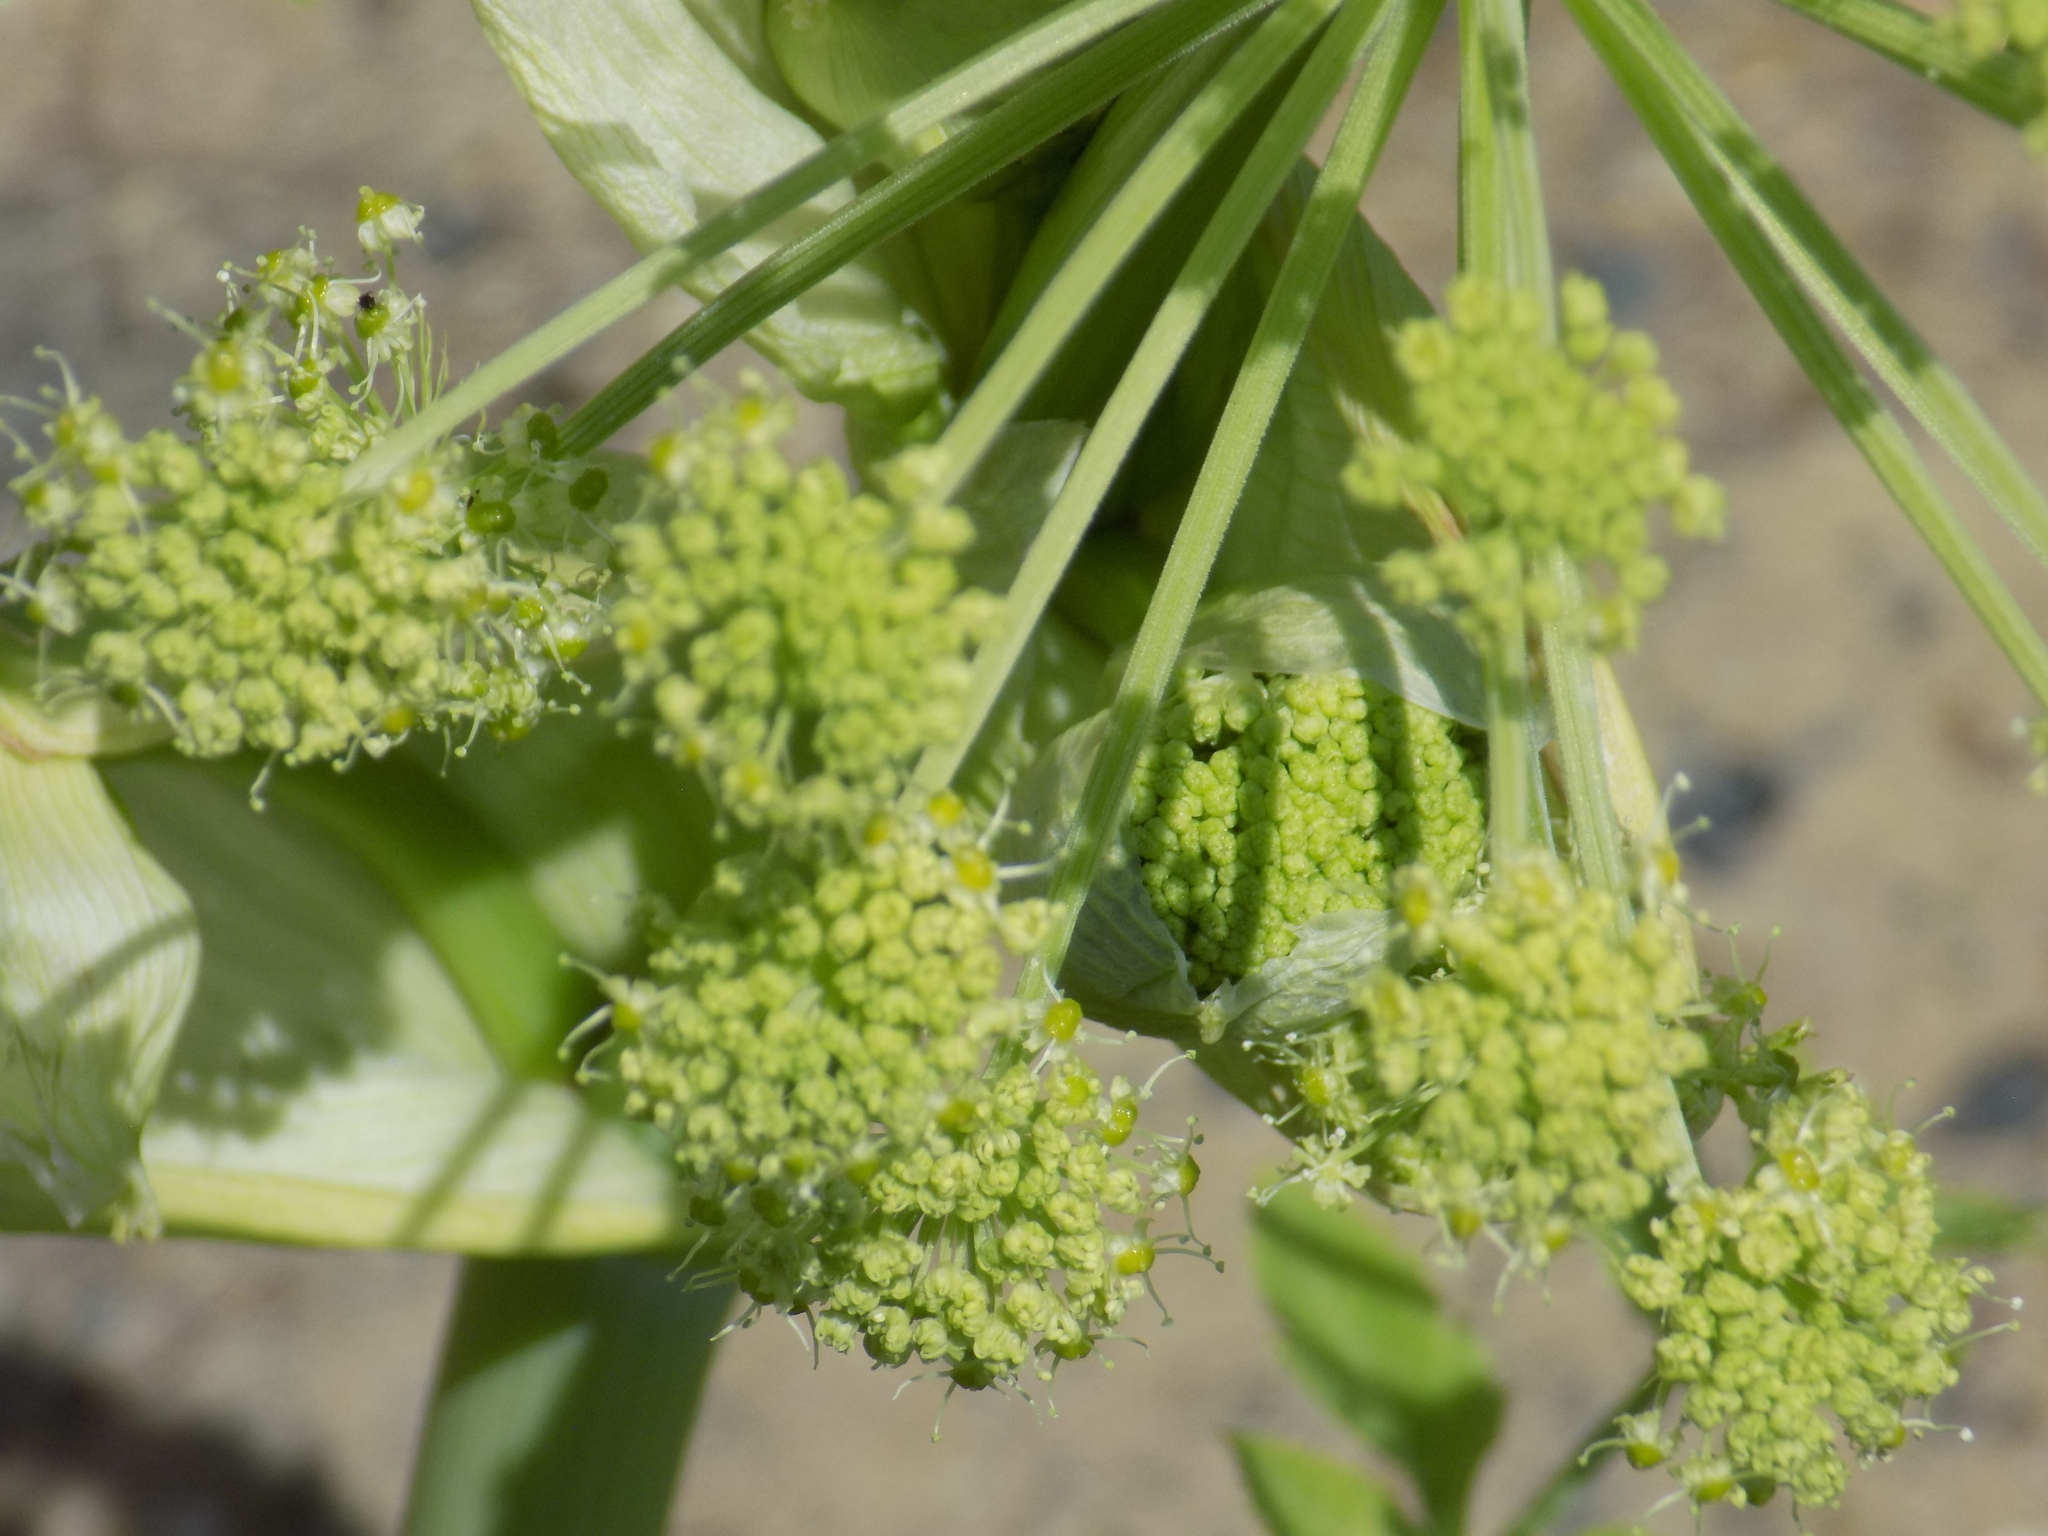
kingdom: Plantae
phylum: Tracheophyta
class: Magnoliopsida
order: Apiales
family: Apiaceae
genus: Angelica
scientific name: Angelica decurrens
